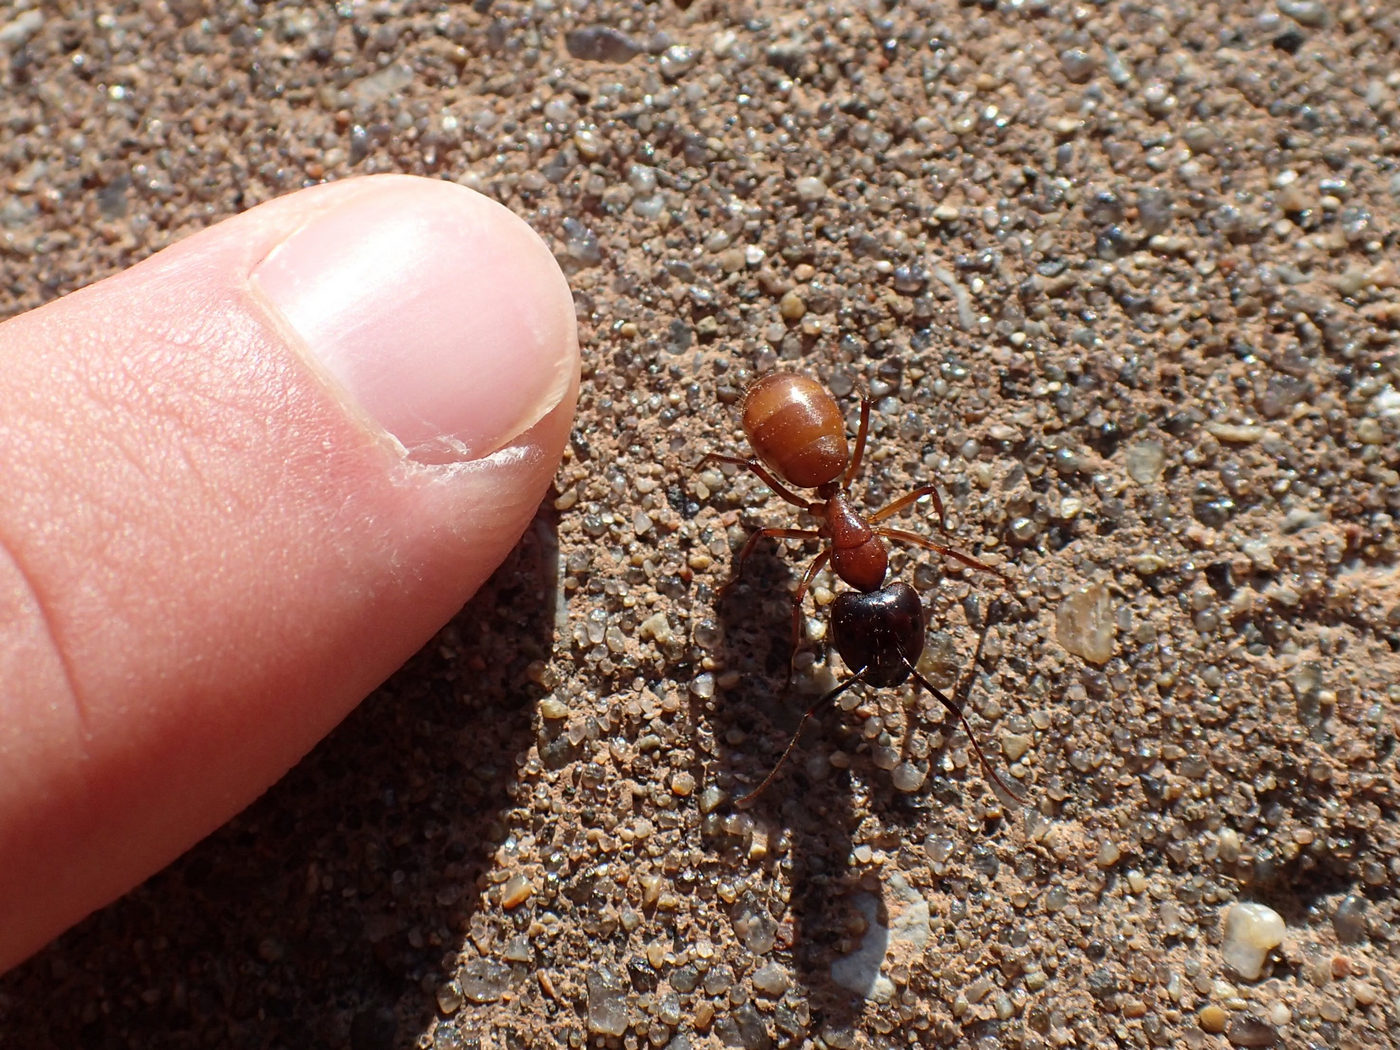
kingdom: Animalia
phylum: Arthropoda
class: Insecta
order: Hymenoptera
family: Formicidae
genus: Camponotus
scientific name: Camponotus americanus
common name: American carpenter ant
